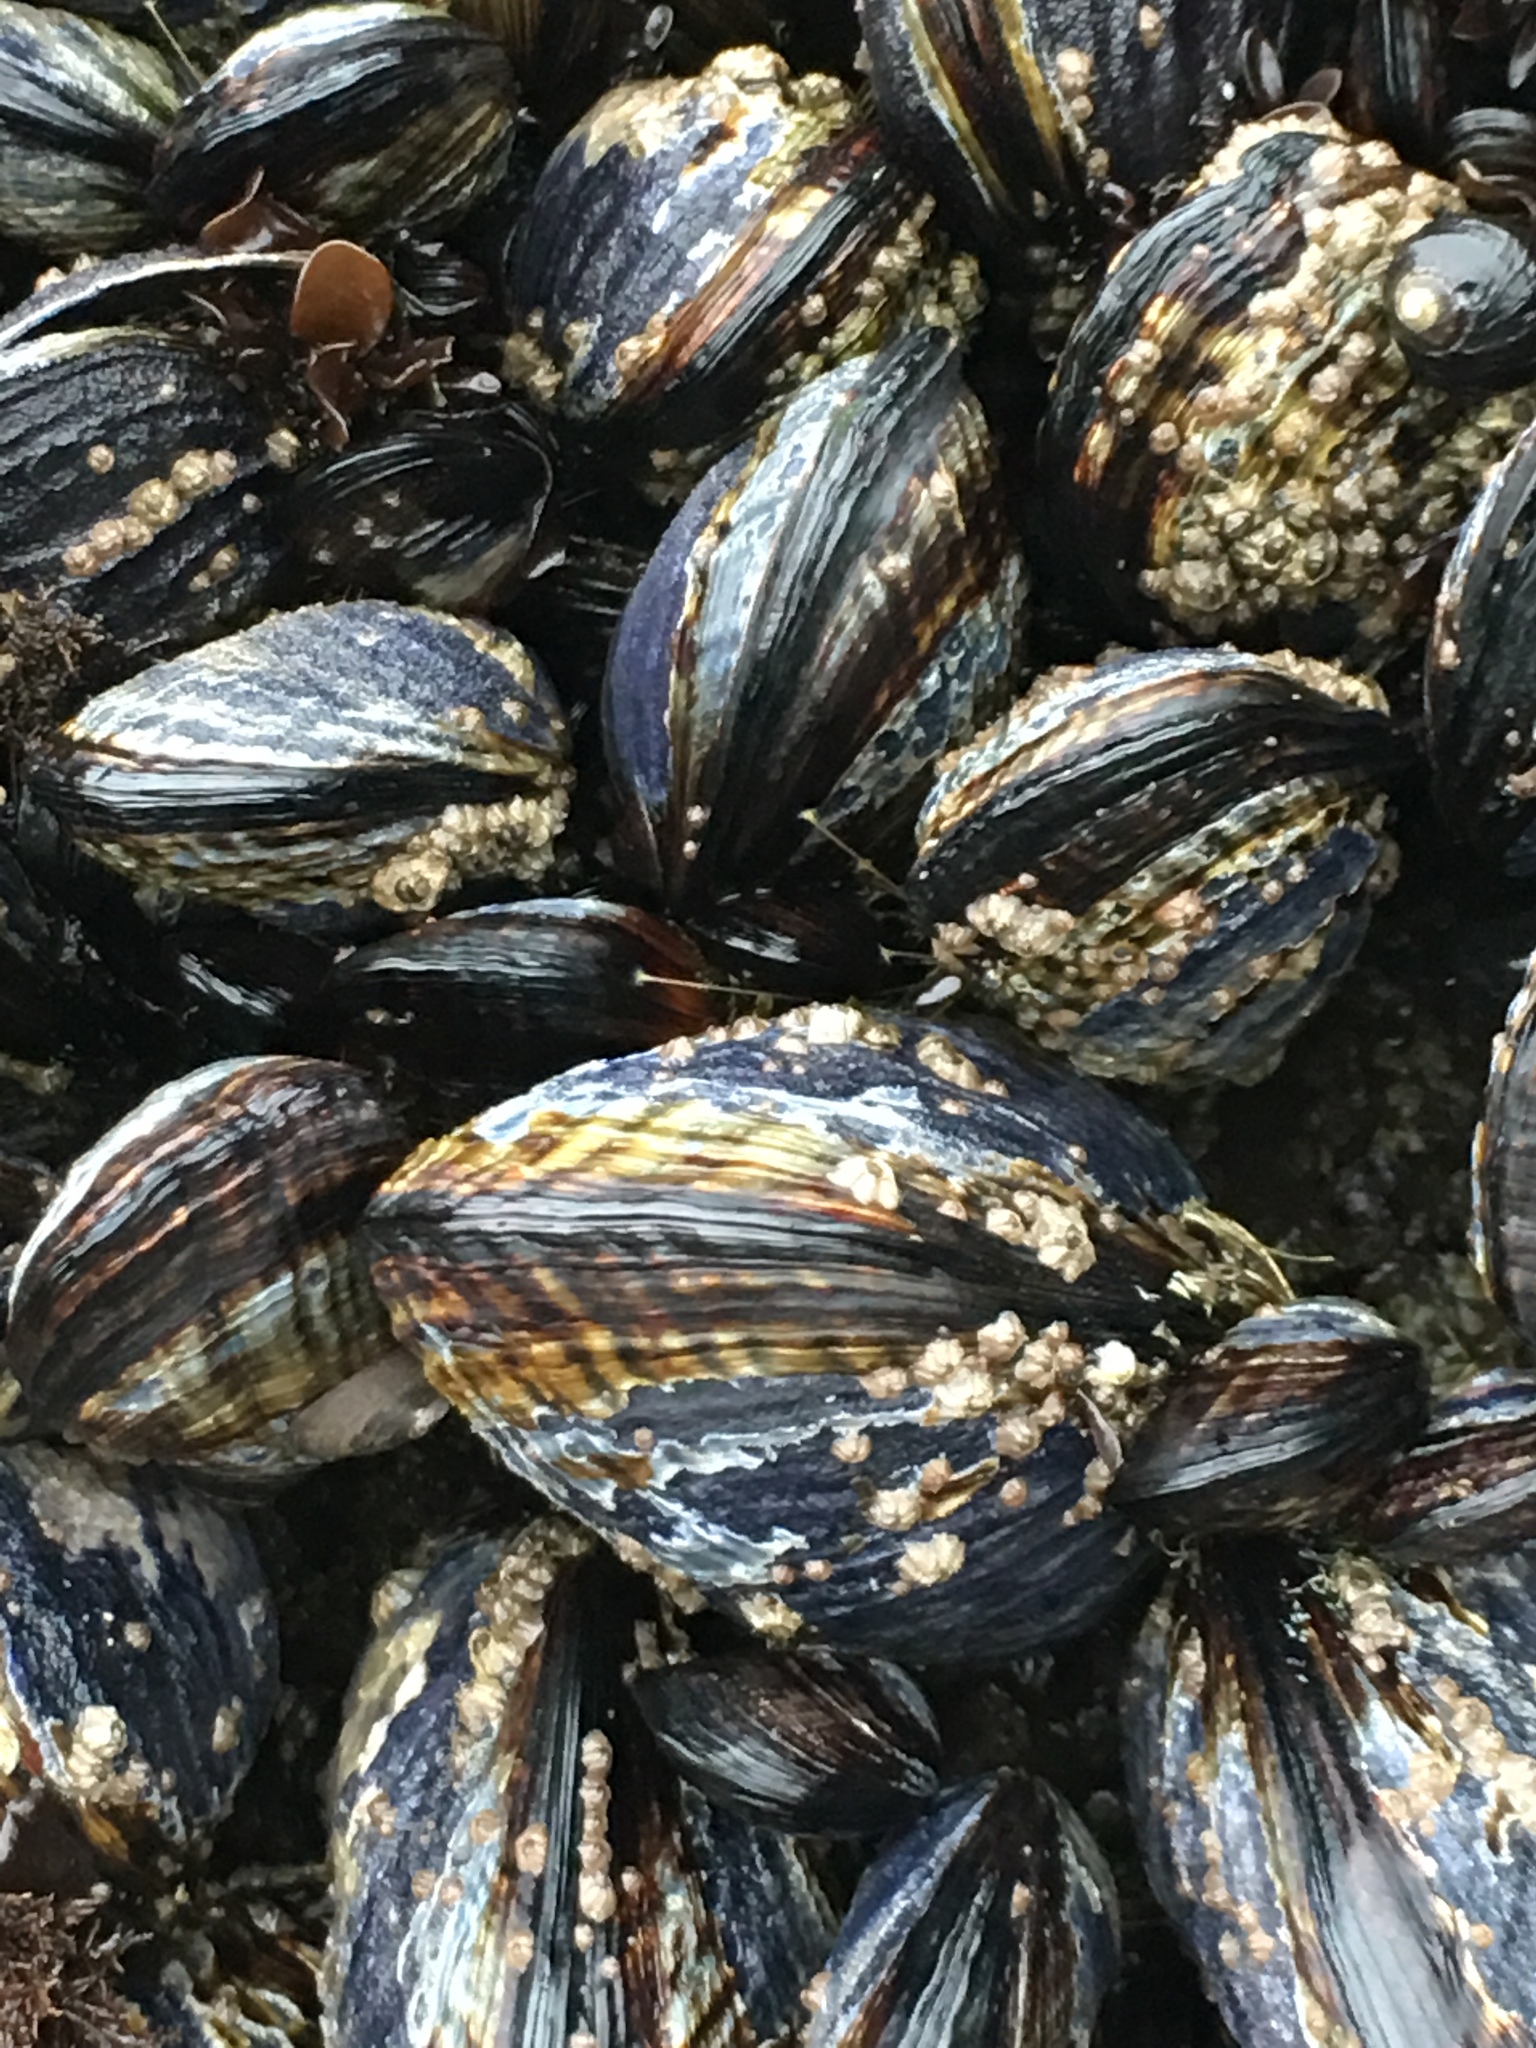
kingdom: Animalia
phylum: Mollusca
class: Bivalvia
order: Mytilida
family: Mytilidae
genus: Mytilus
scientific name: Mytilus californianus
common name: California mussel
